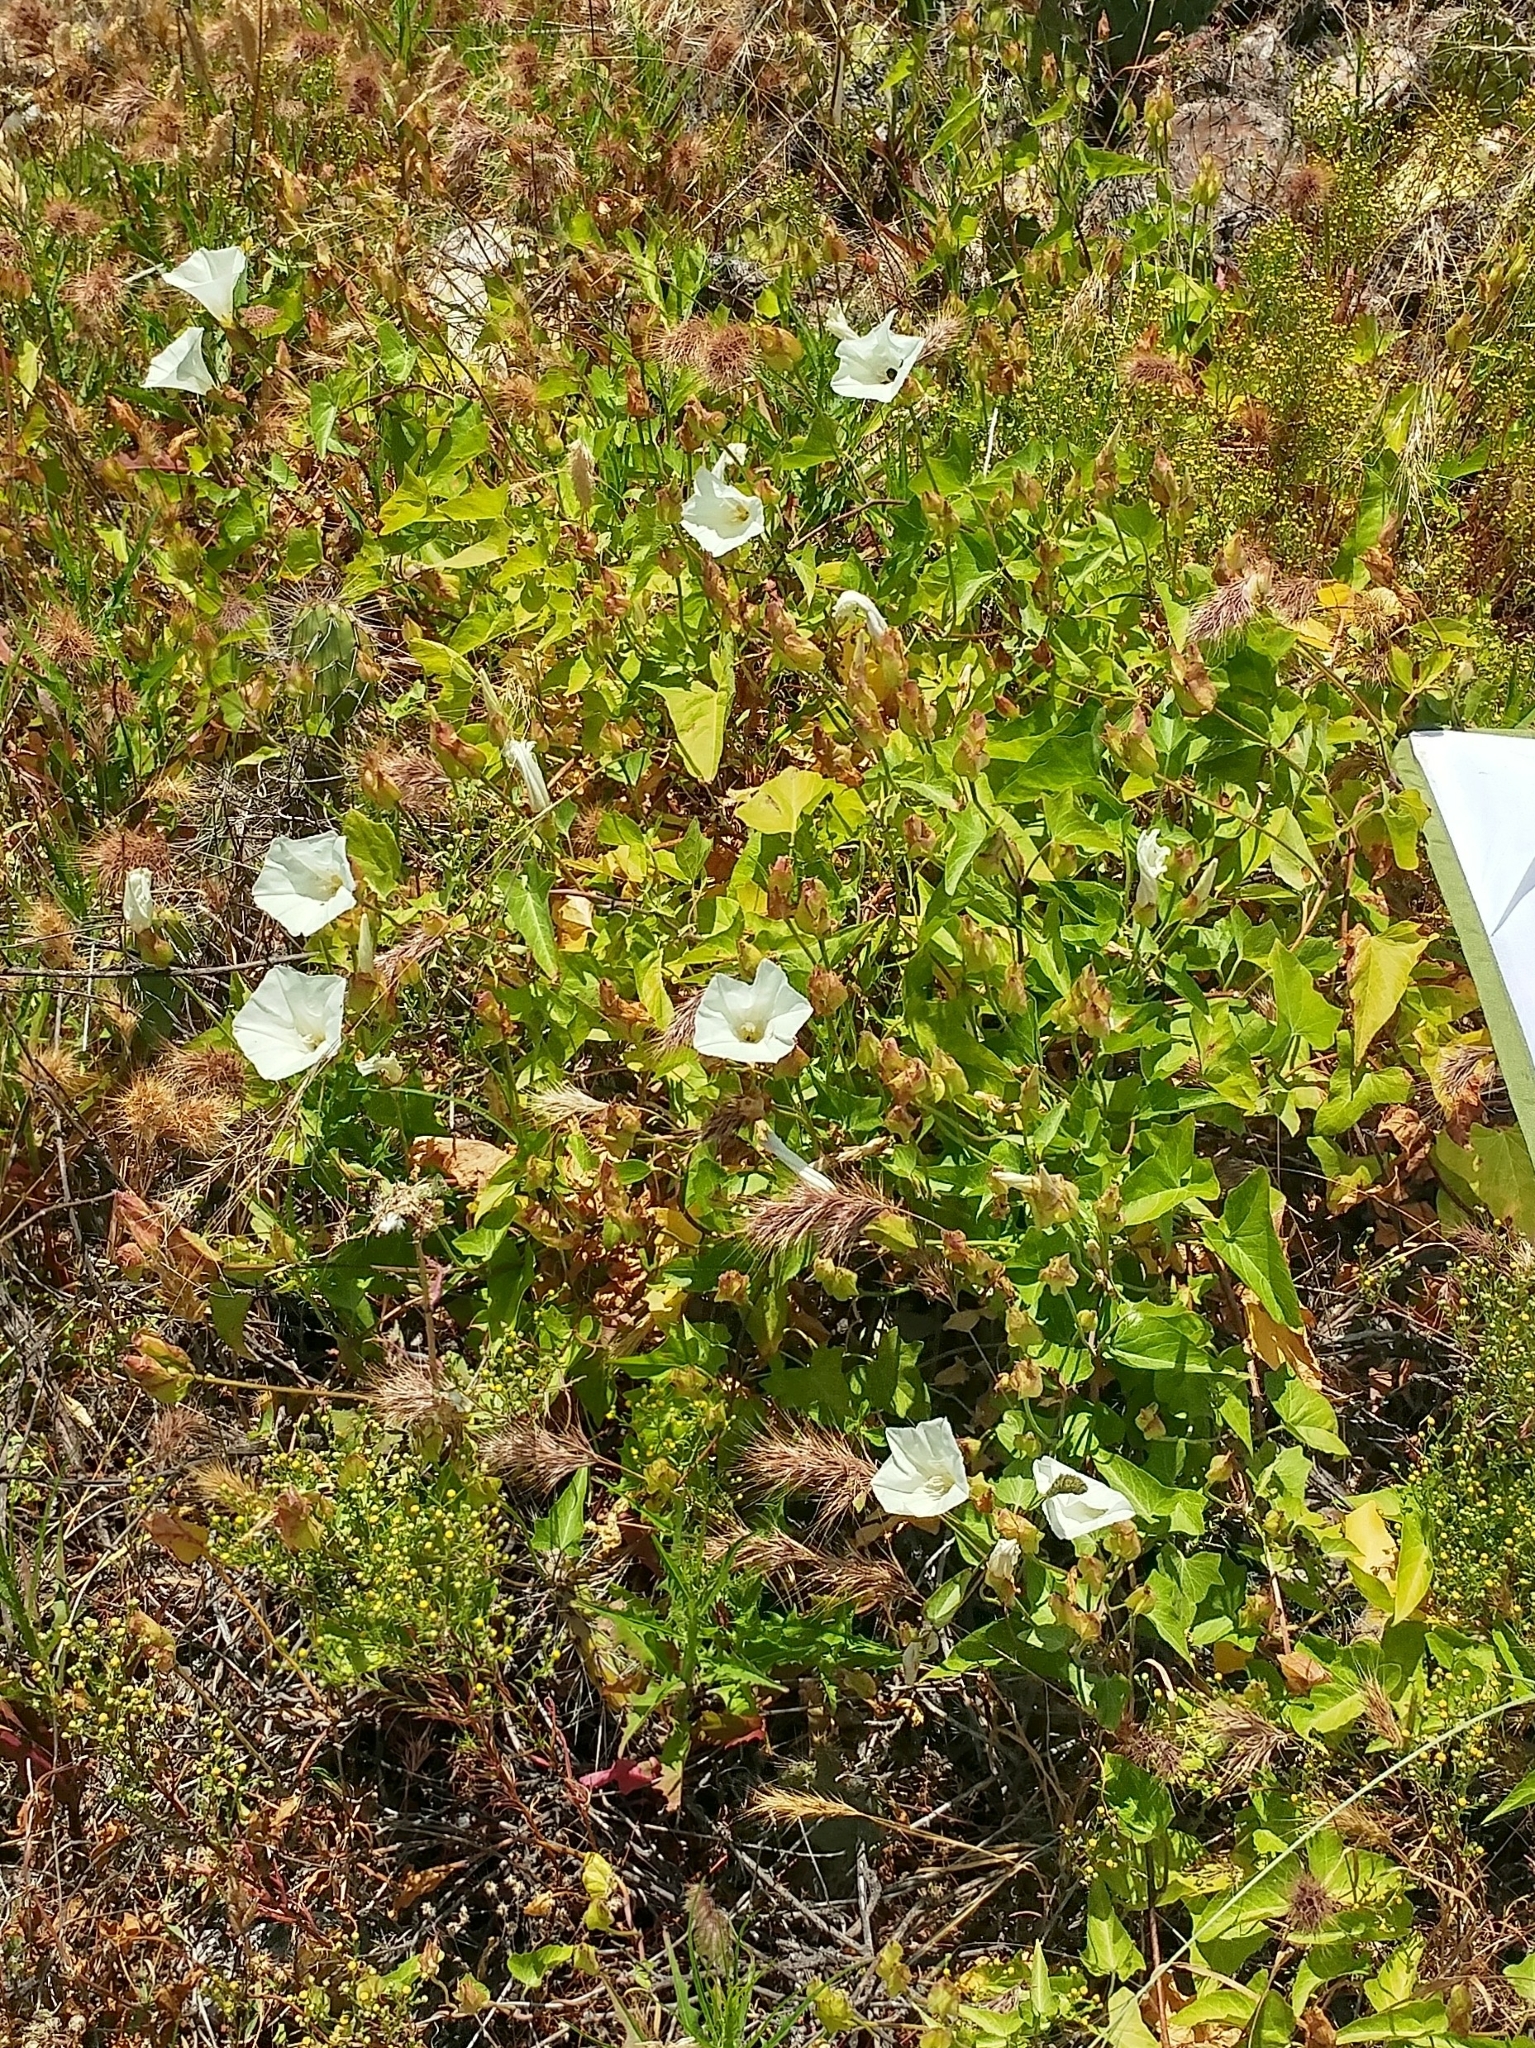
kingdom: Plantae
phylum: Tracheophyta
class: Magnoliopsida
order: Solanales
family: Convolvulaceae
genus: Calystegia
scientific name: Calystegia macrostegia
